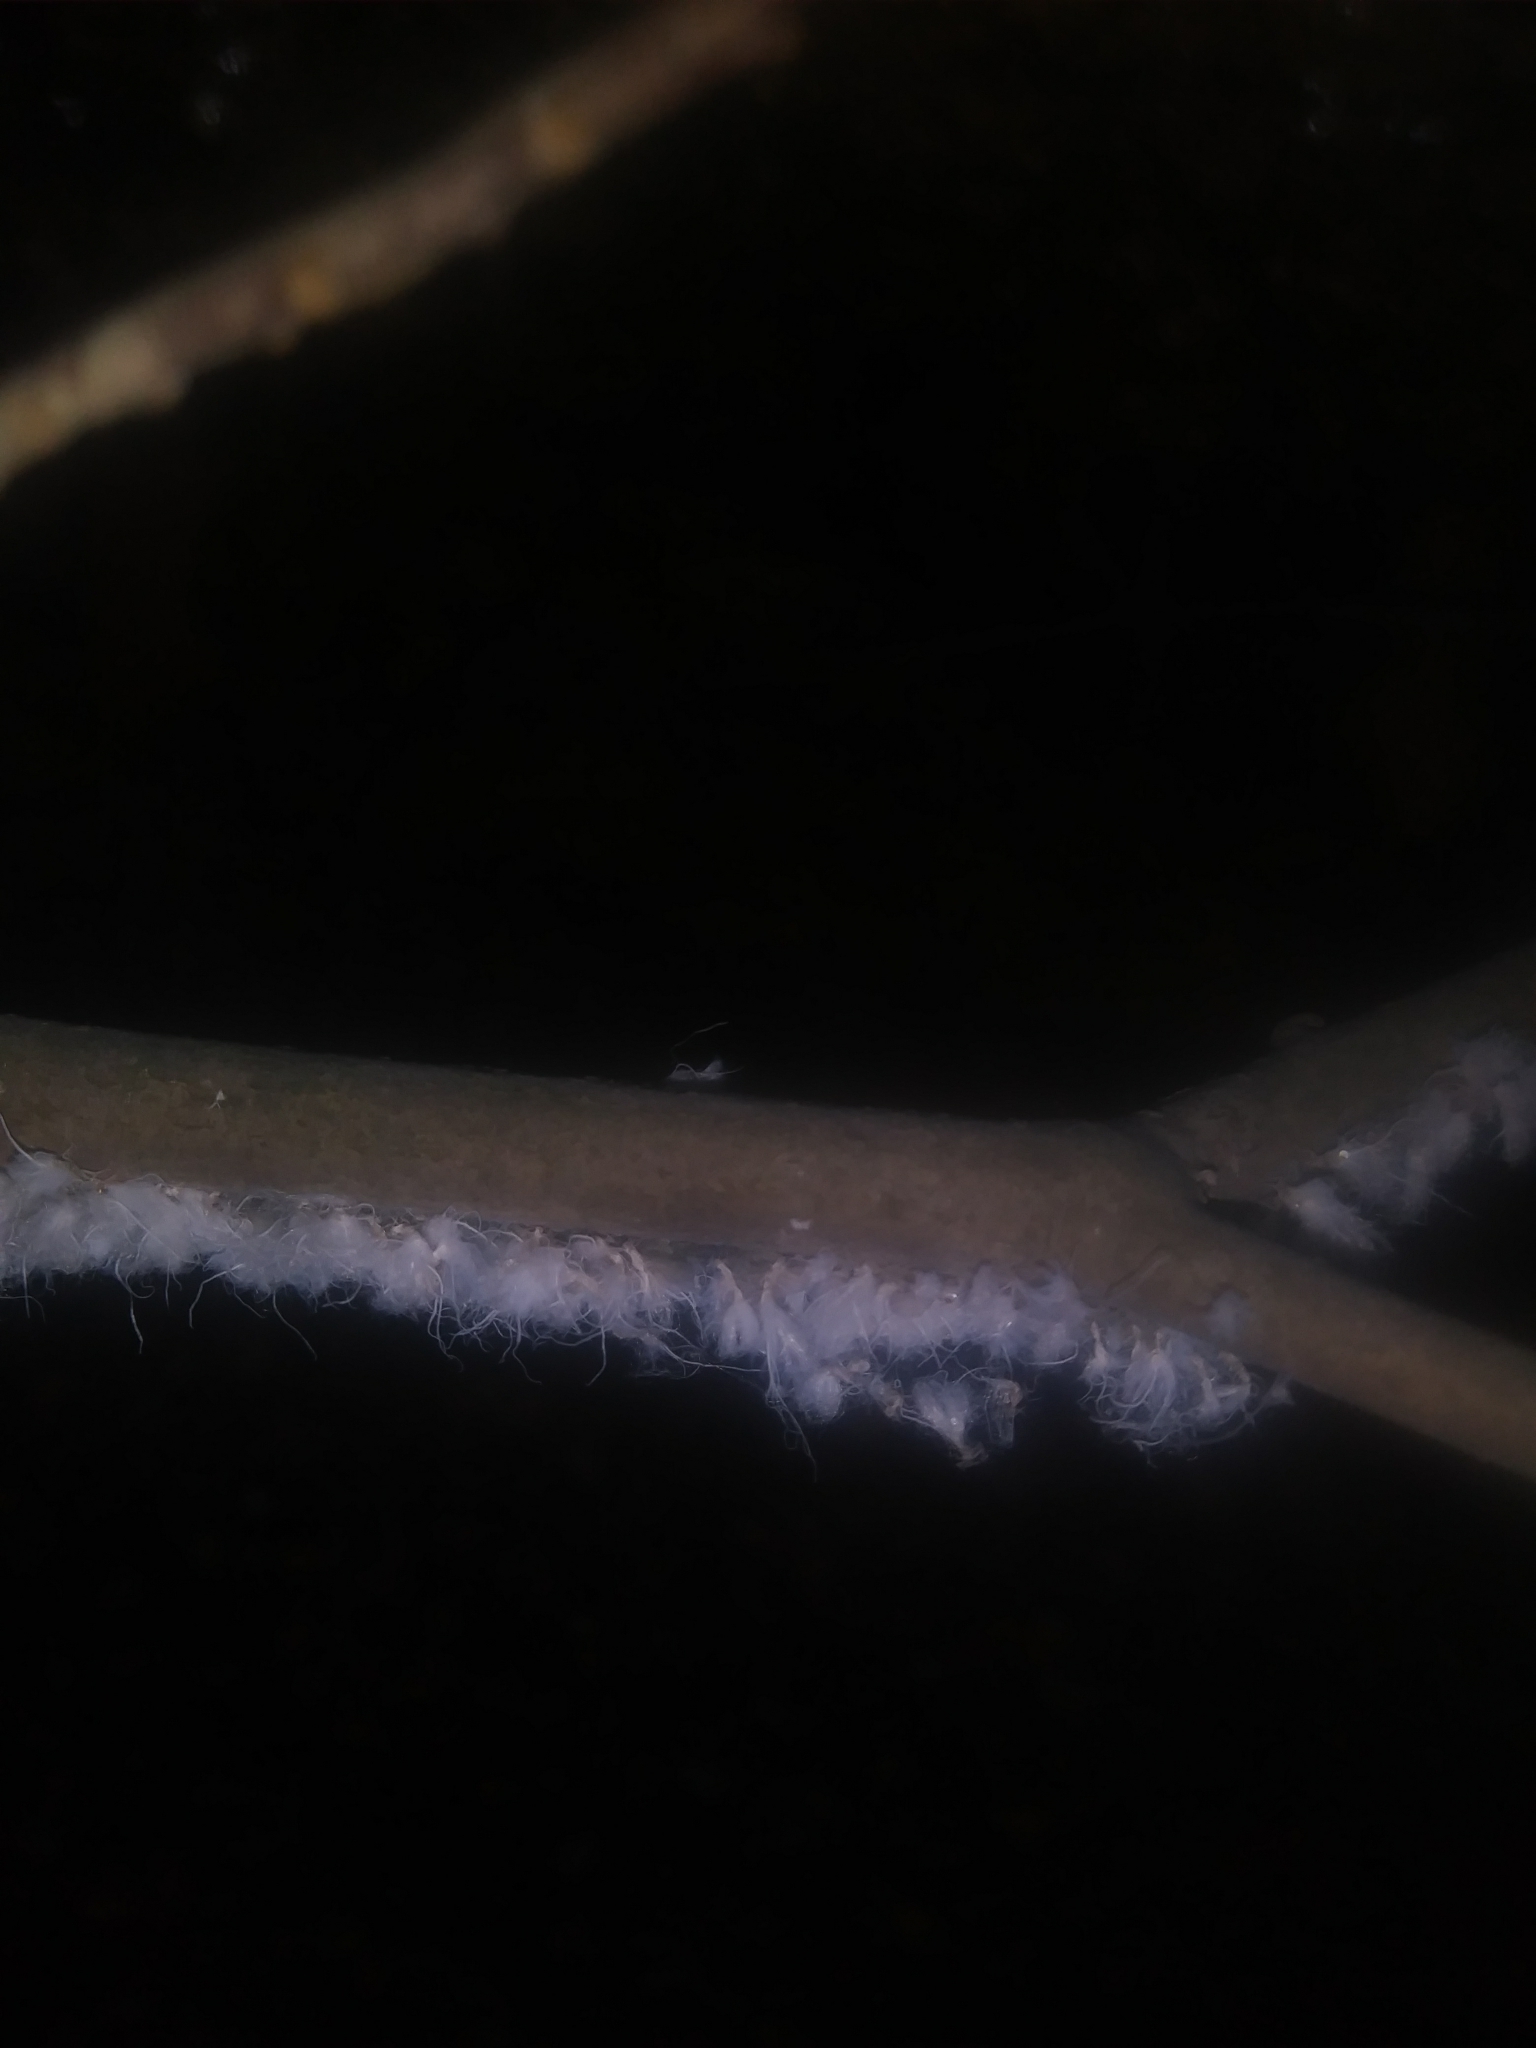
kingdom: Animalia
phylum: Arthropoda
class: Insecta
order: Hemiptera
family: Aphididae
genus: Grylloprociphilus
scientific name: Grylloprociphilus imbricator
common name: Beech blight aphid
